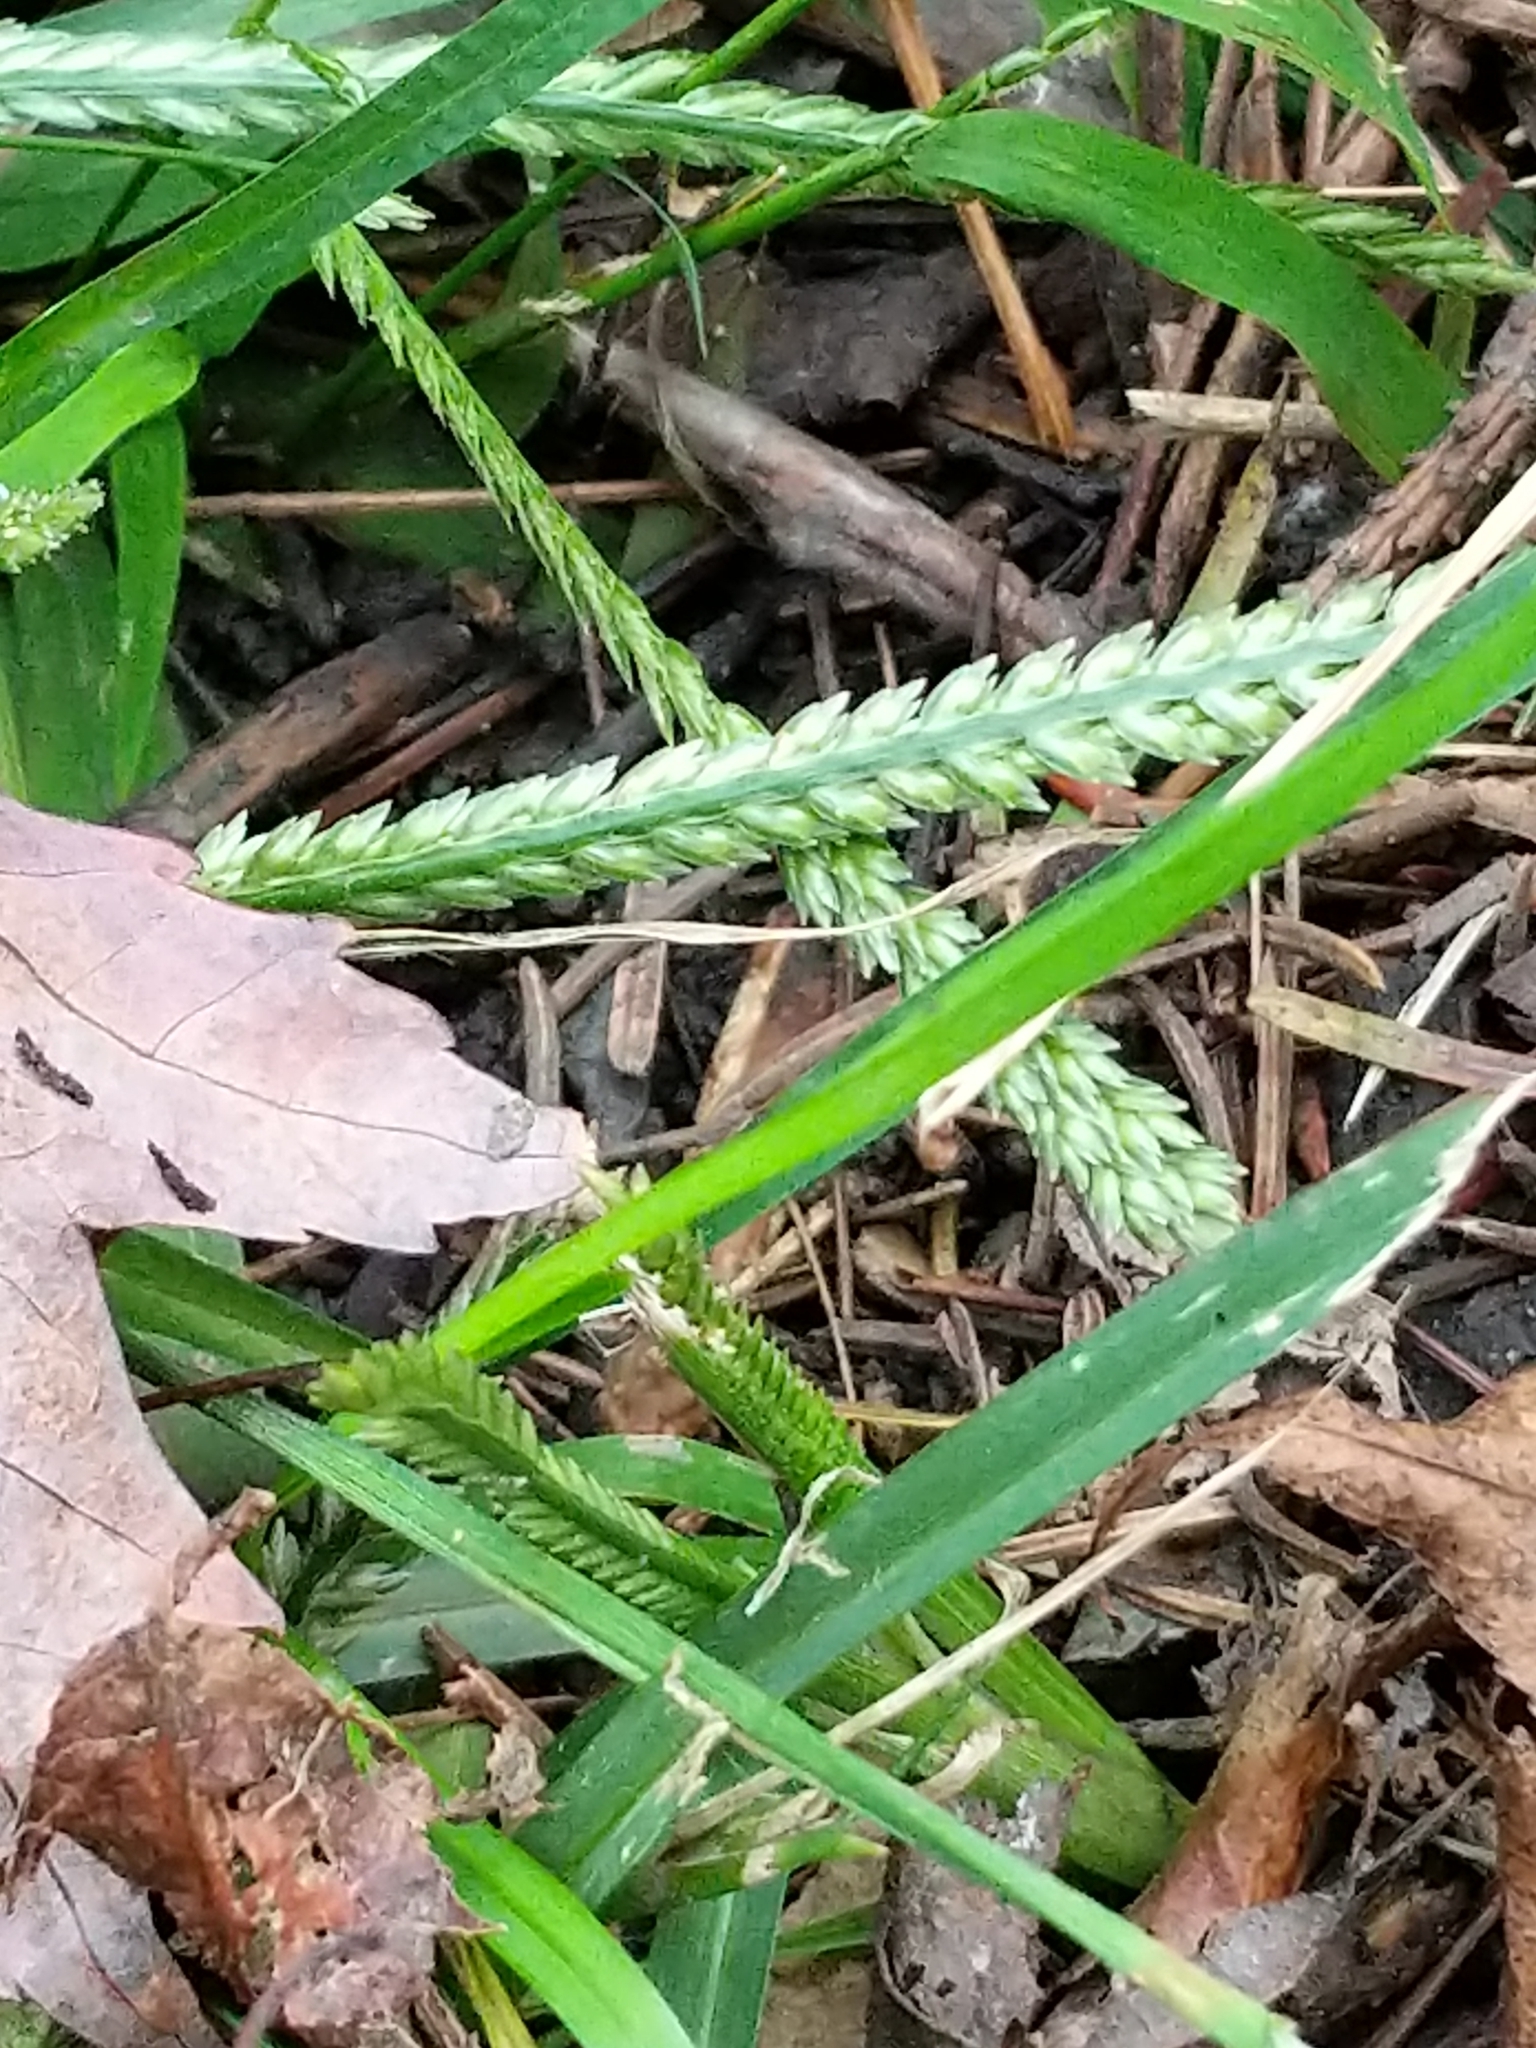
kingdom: Plantae
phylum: Tracheophyta
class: Liliopsida
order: Poales
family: Poaceae
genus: Eleusine
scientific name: Eleusine indica
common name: Yard-grass
